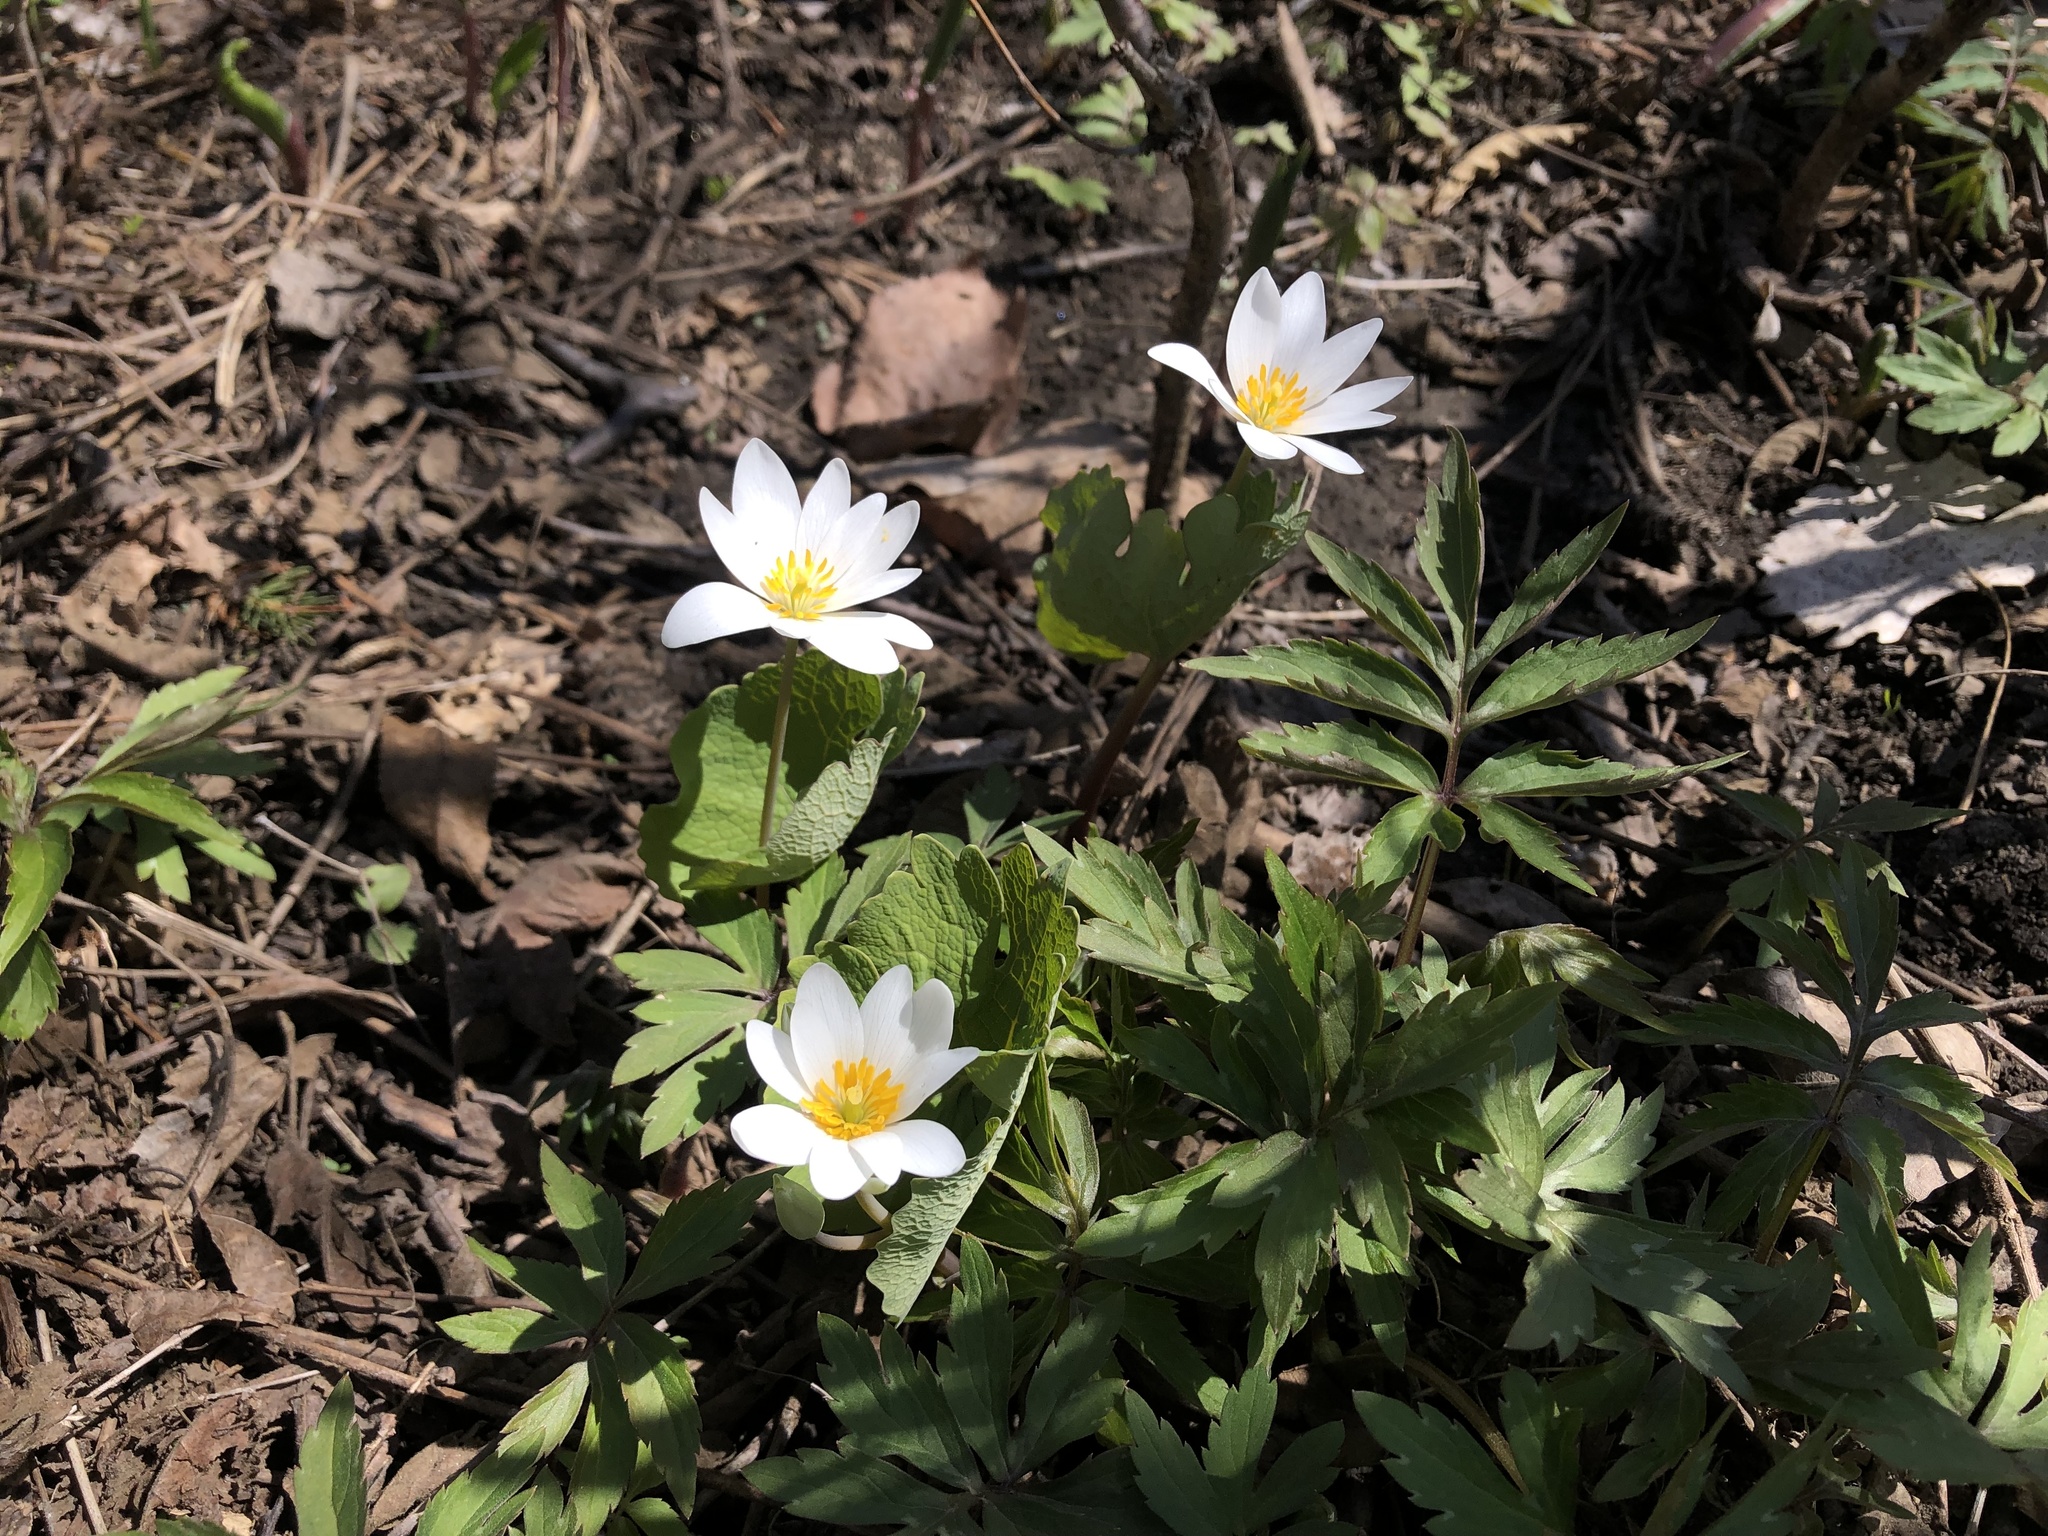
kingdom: Plantae
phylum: Tracheophyta
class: Magnoliopsida
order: Ranunculales
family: Papaveraceae
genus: Sanguinaria
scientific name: Sanguinaria canadensis
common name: Bloodroot
